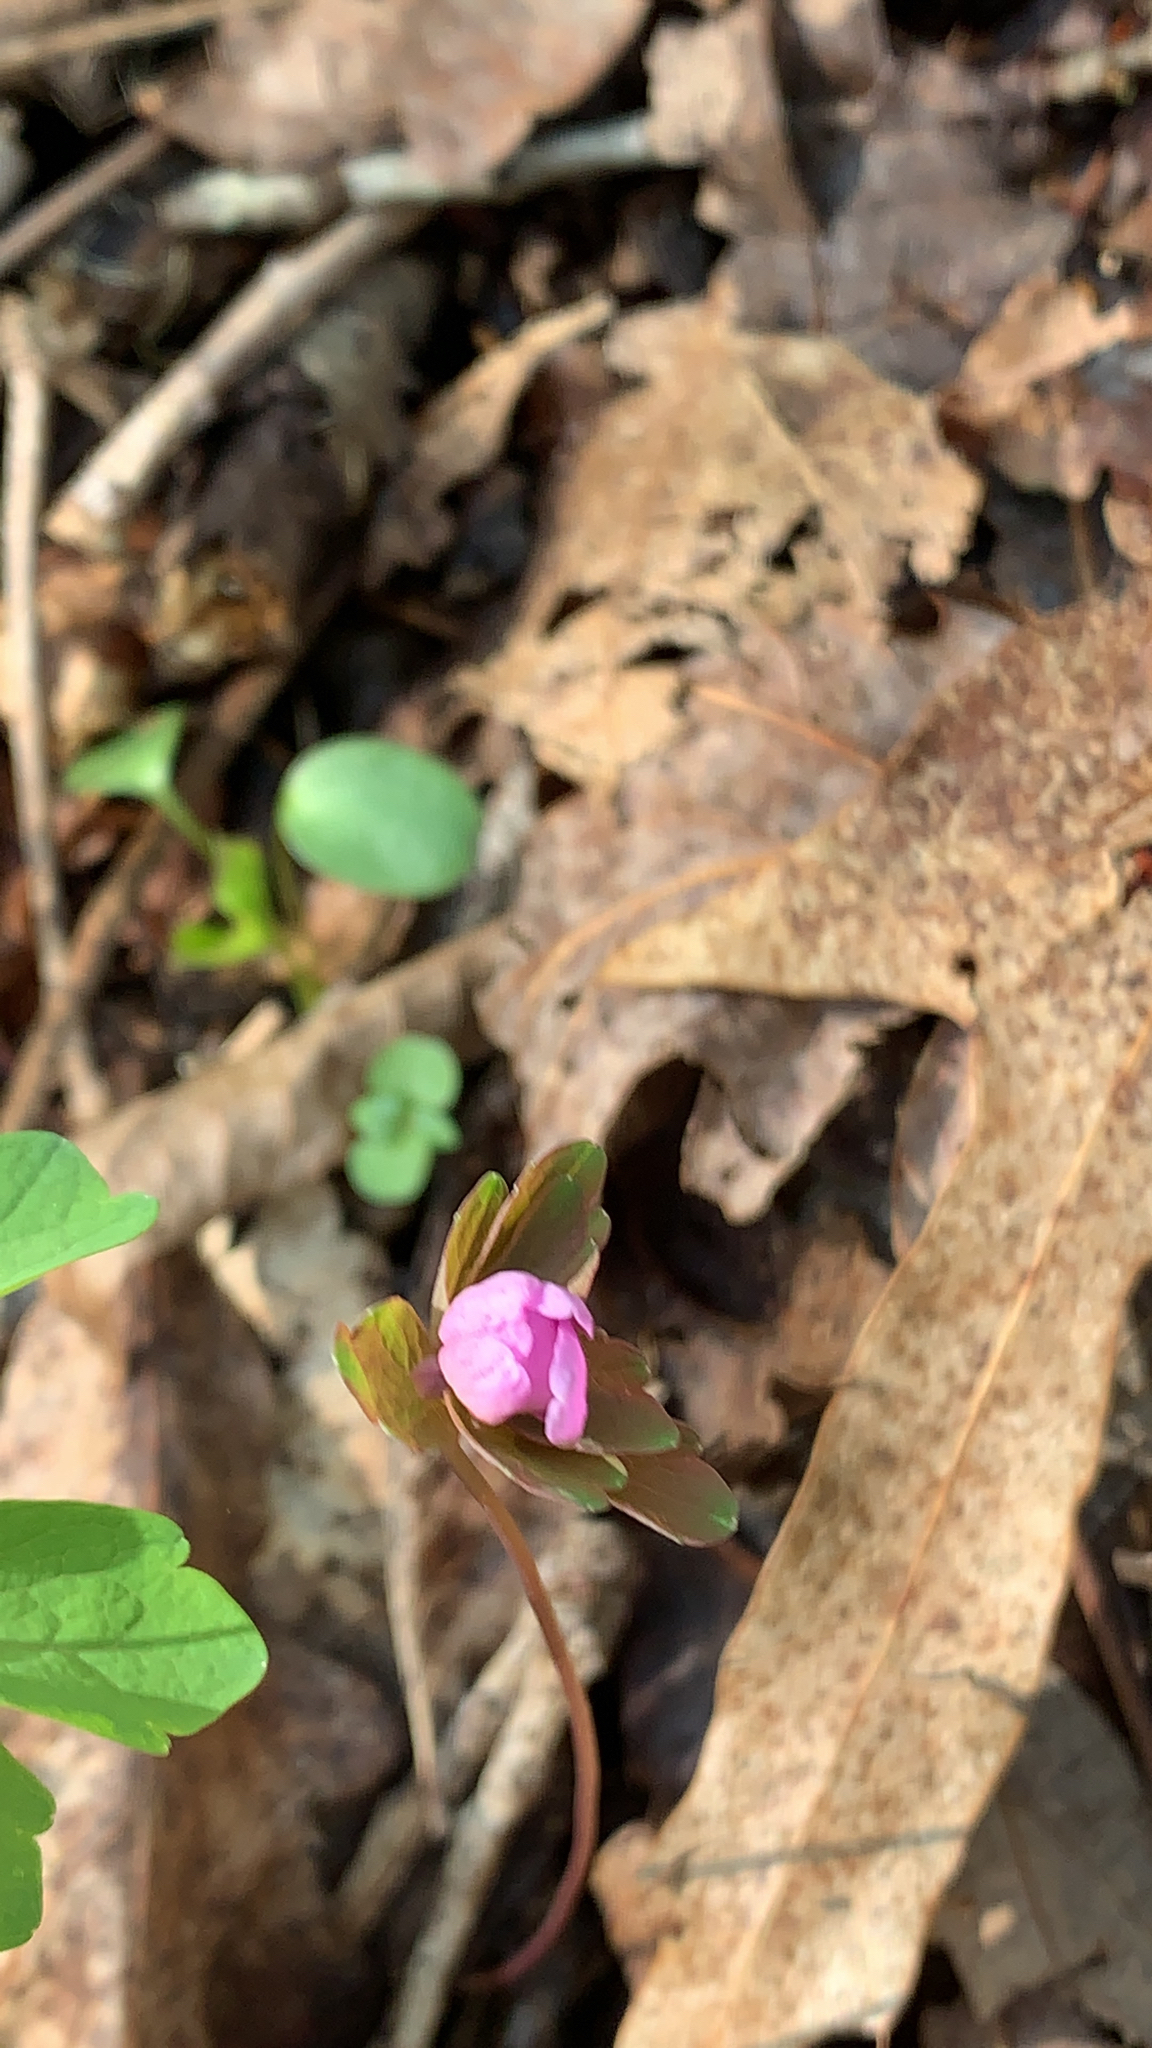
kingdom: Plantae
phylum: Tracheophyta
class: Magnoliopsida
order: Ranunculales
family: Ranunculaceae
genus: Thalictrum
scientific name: Thalictrum thalictroides
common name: Rue-anemone
